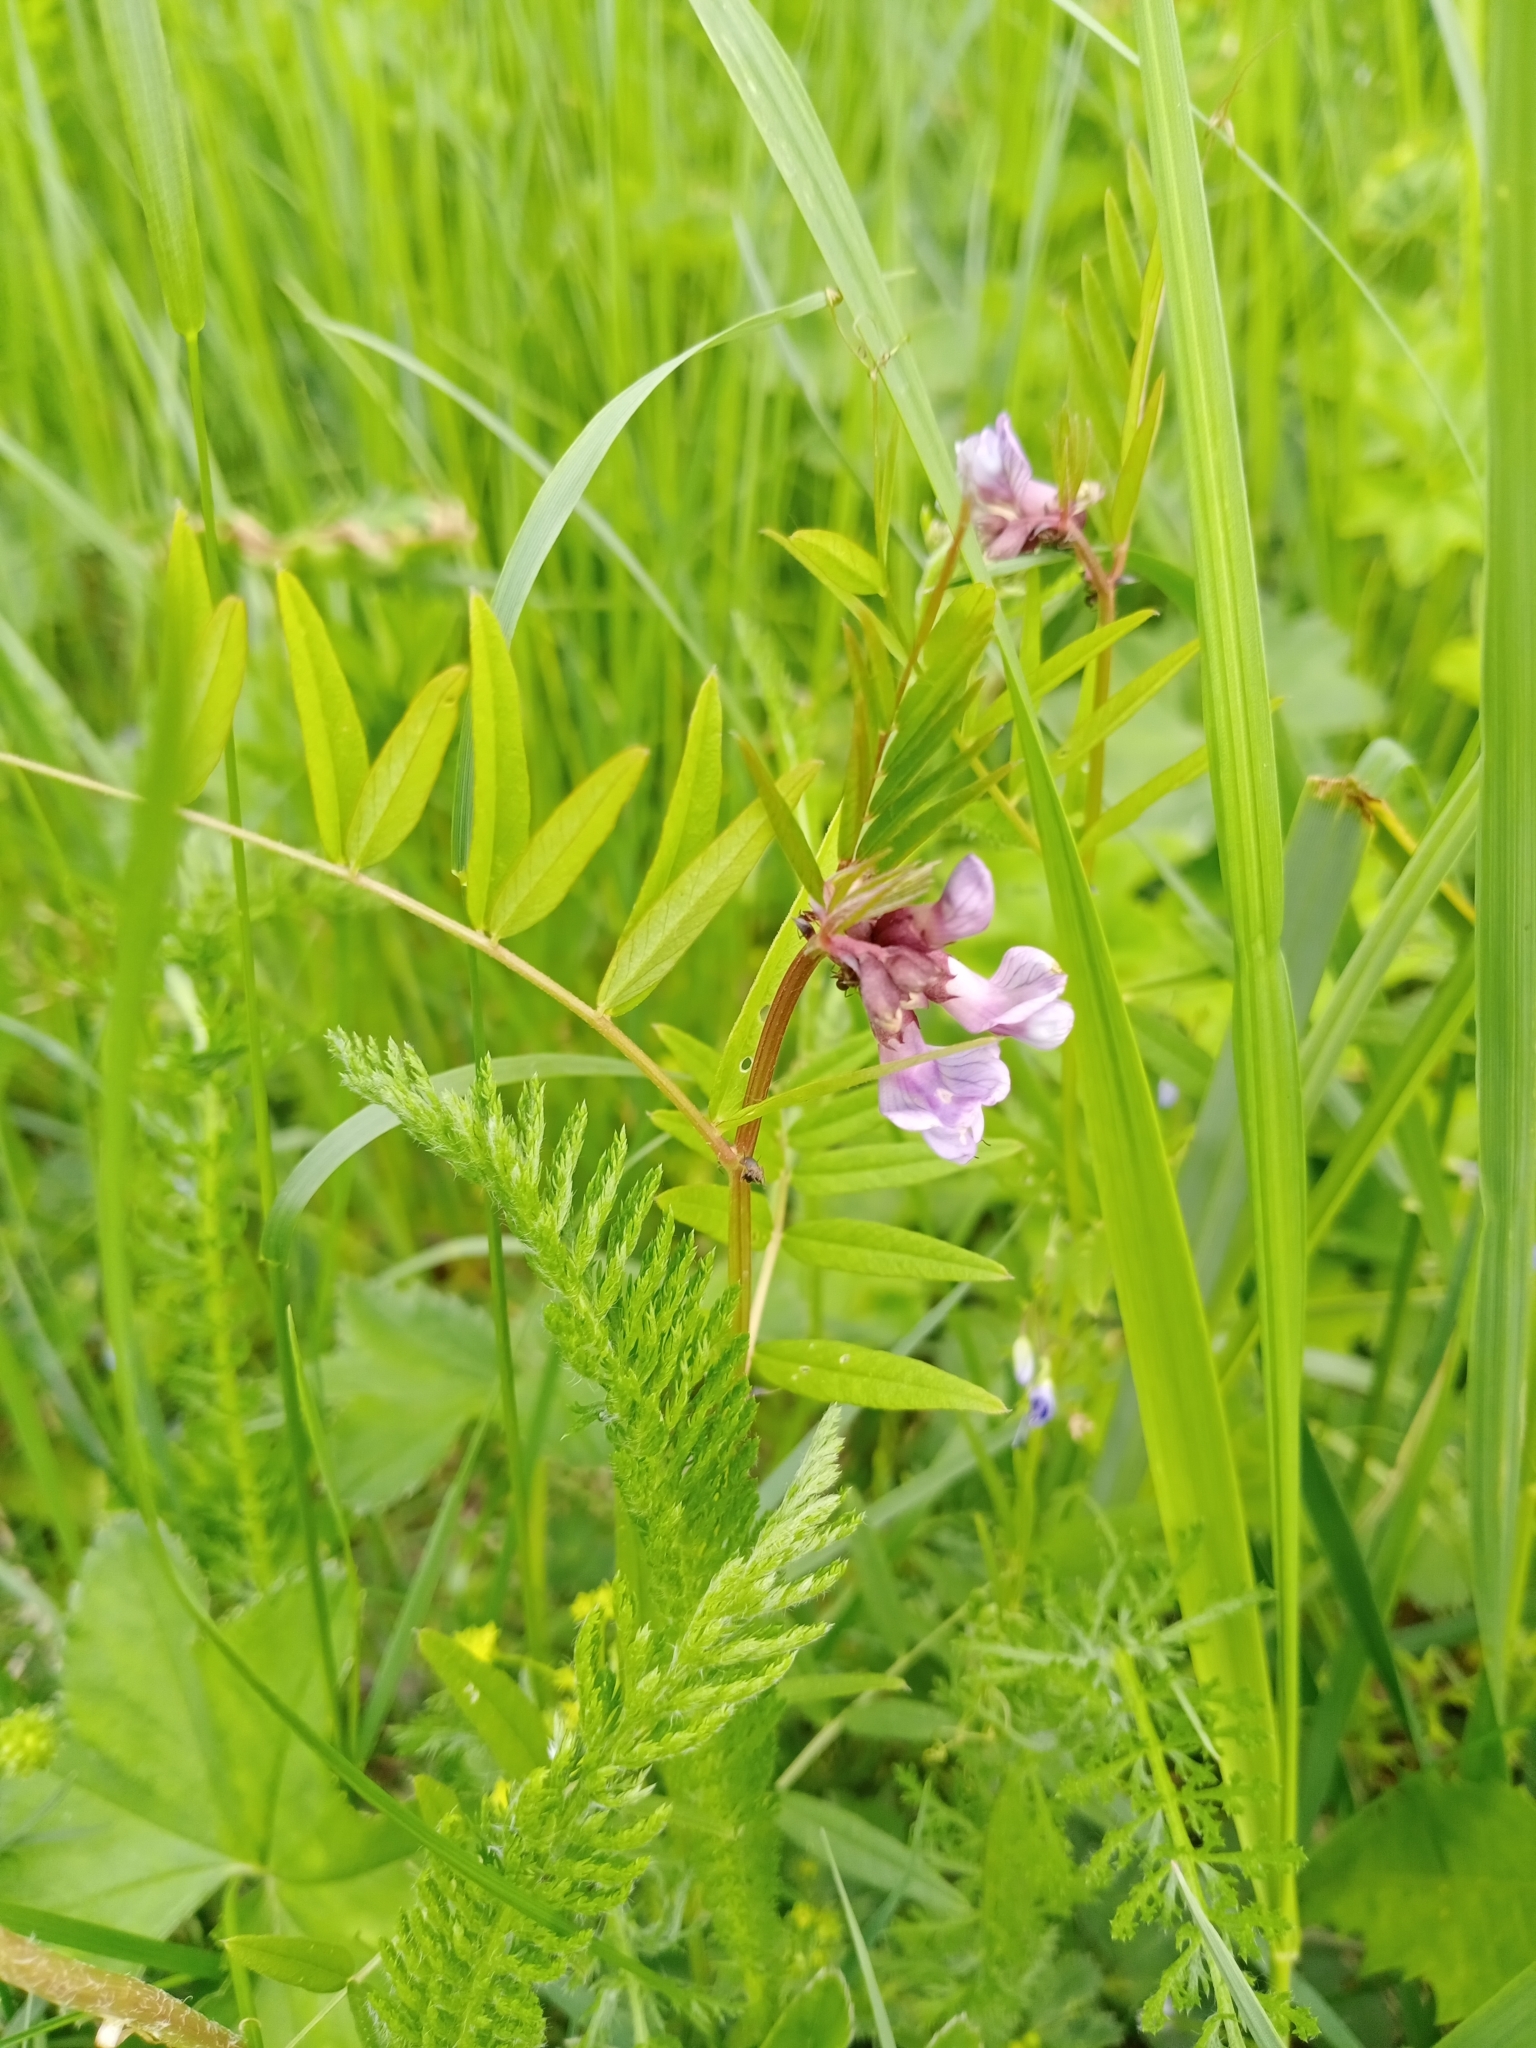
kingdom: Plantae
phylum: Tracheophyta
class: Magnoliopsida
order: Fabales
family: Fabaceae
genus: Vicia
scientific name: Vicia sepium
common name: Bush vetch
